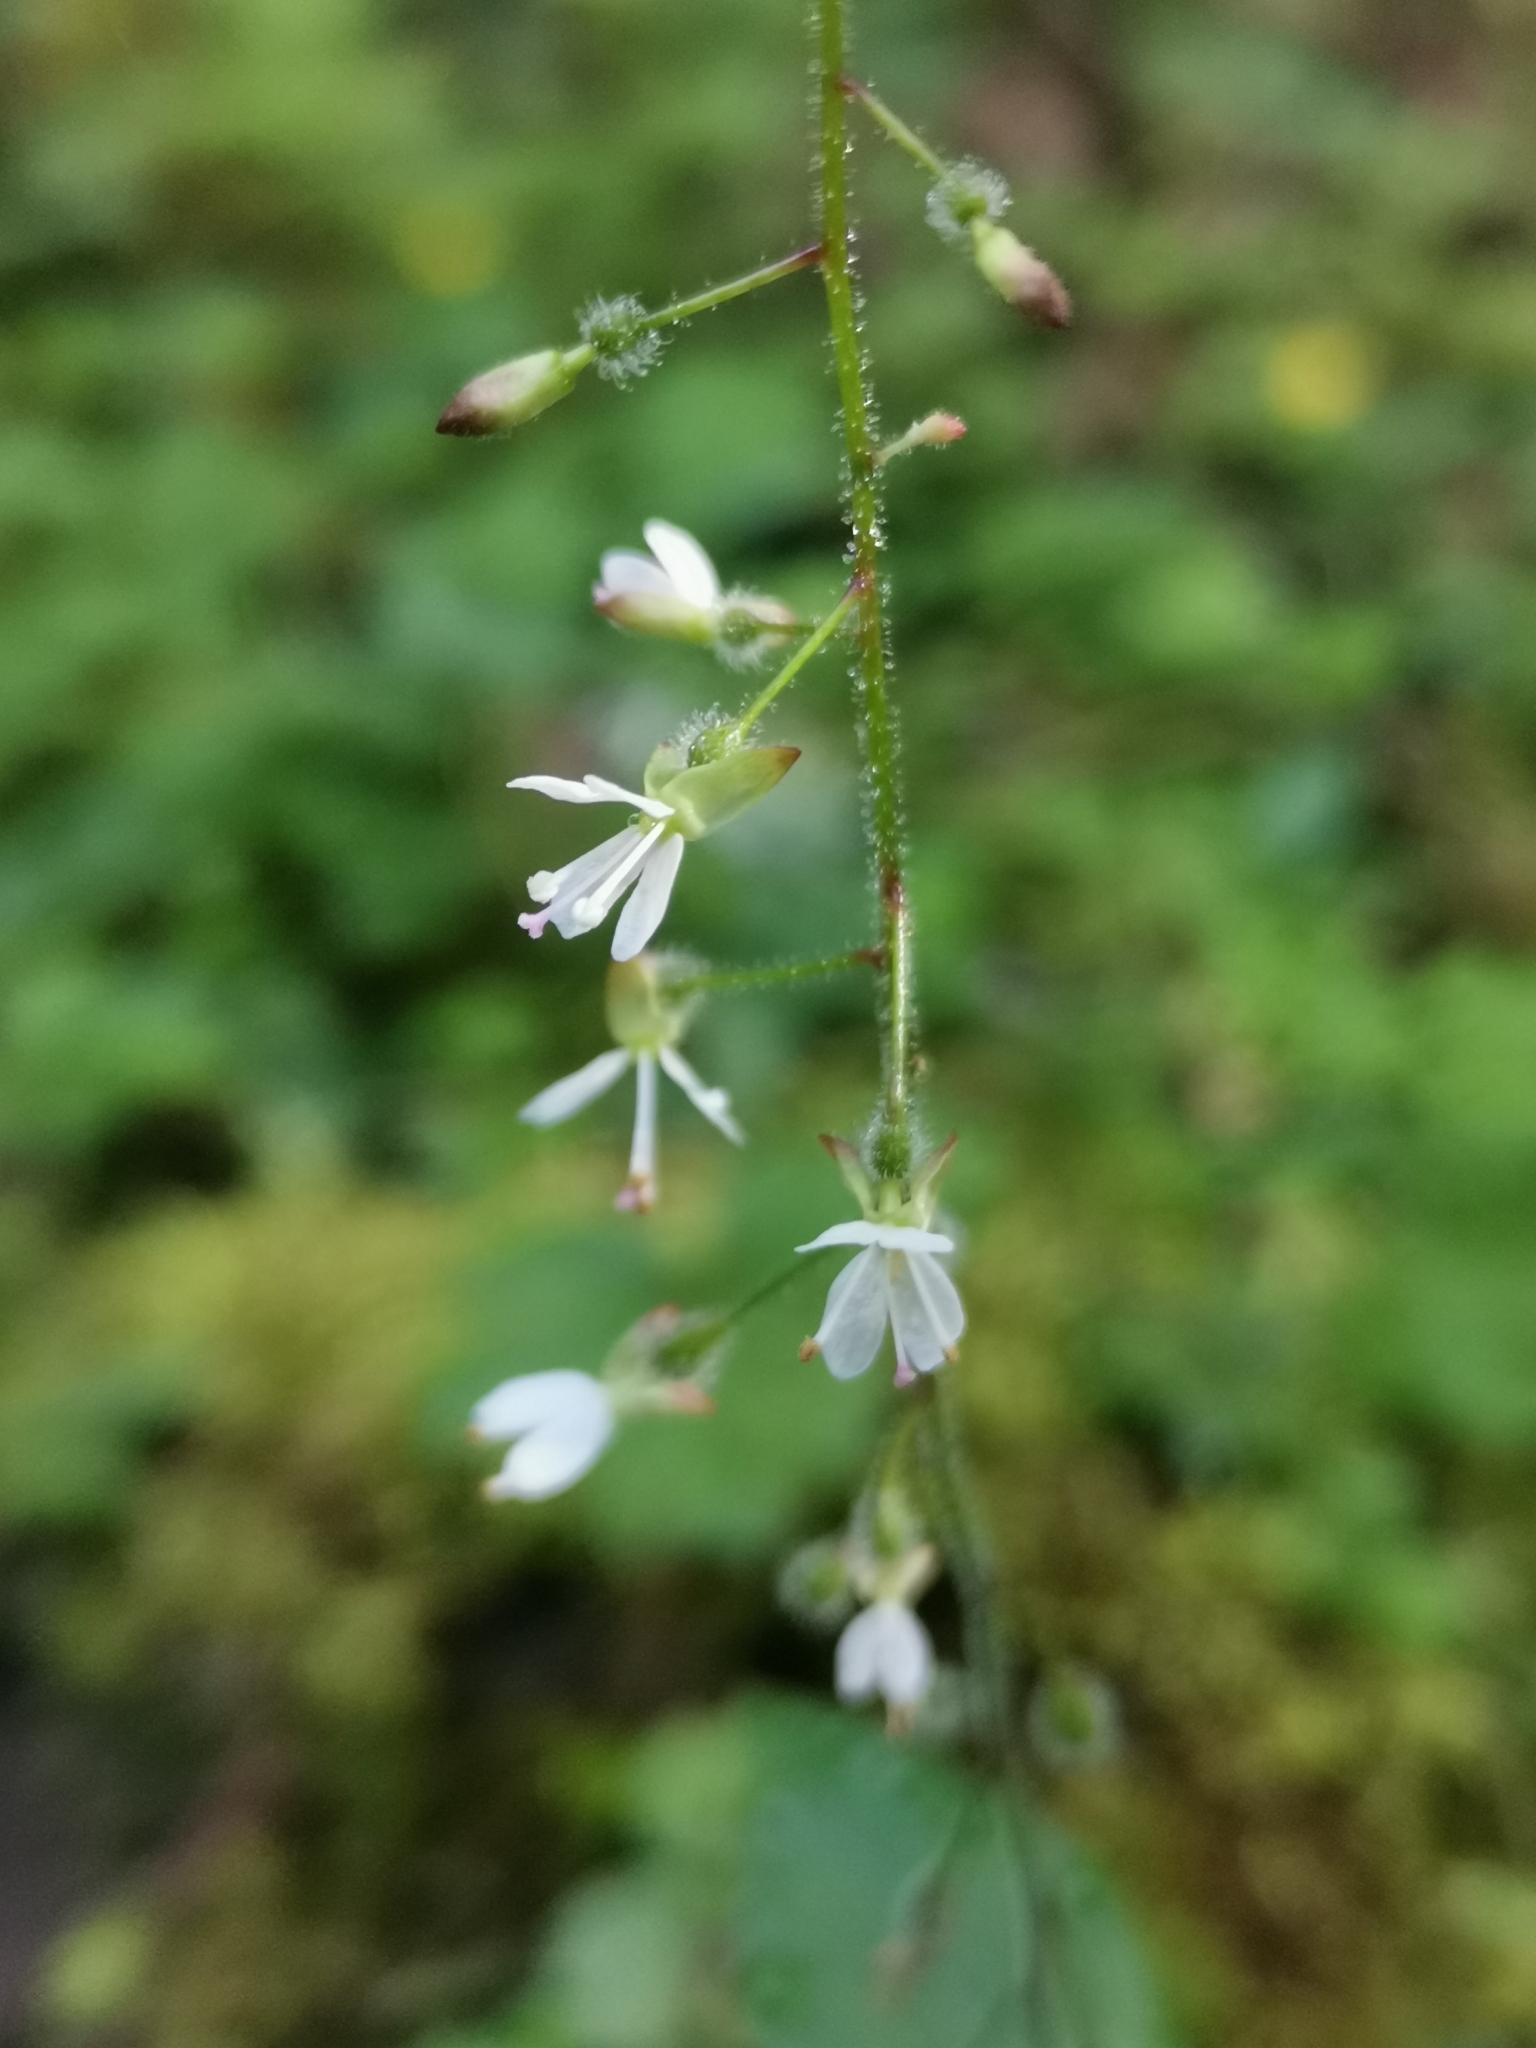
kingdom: Plantae
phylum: Tracheophyta
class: Magnoliopsida
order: Myrtales
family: Onagraceae
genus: Circaea
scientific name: Circaea lutetiana
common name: Enchanter's-nightshade
